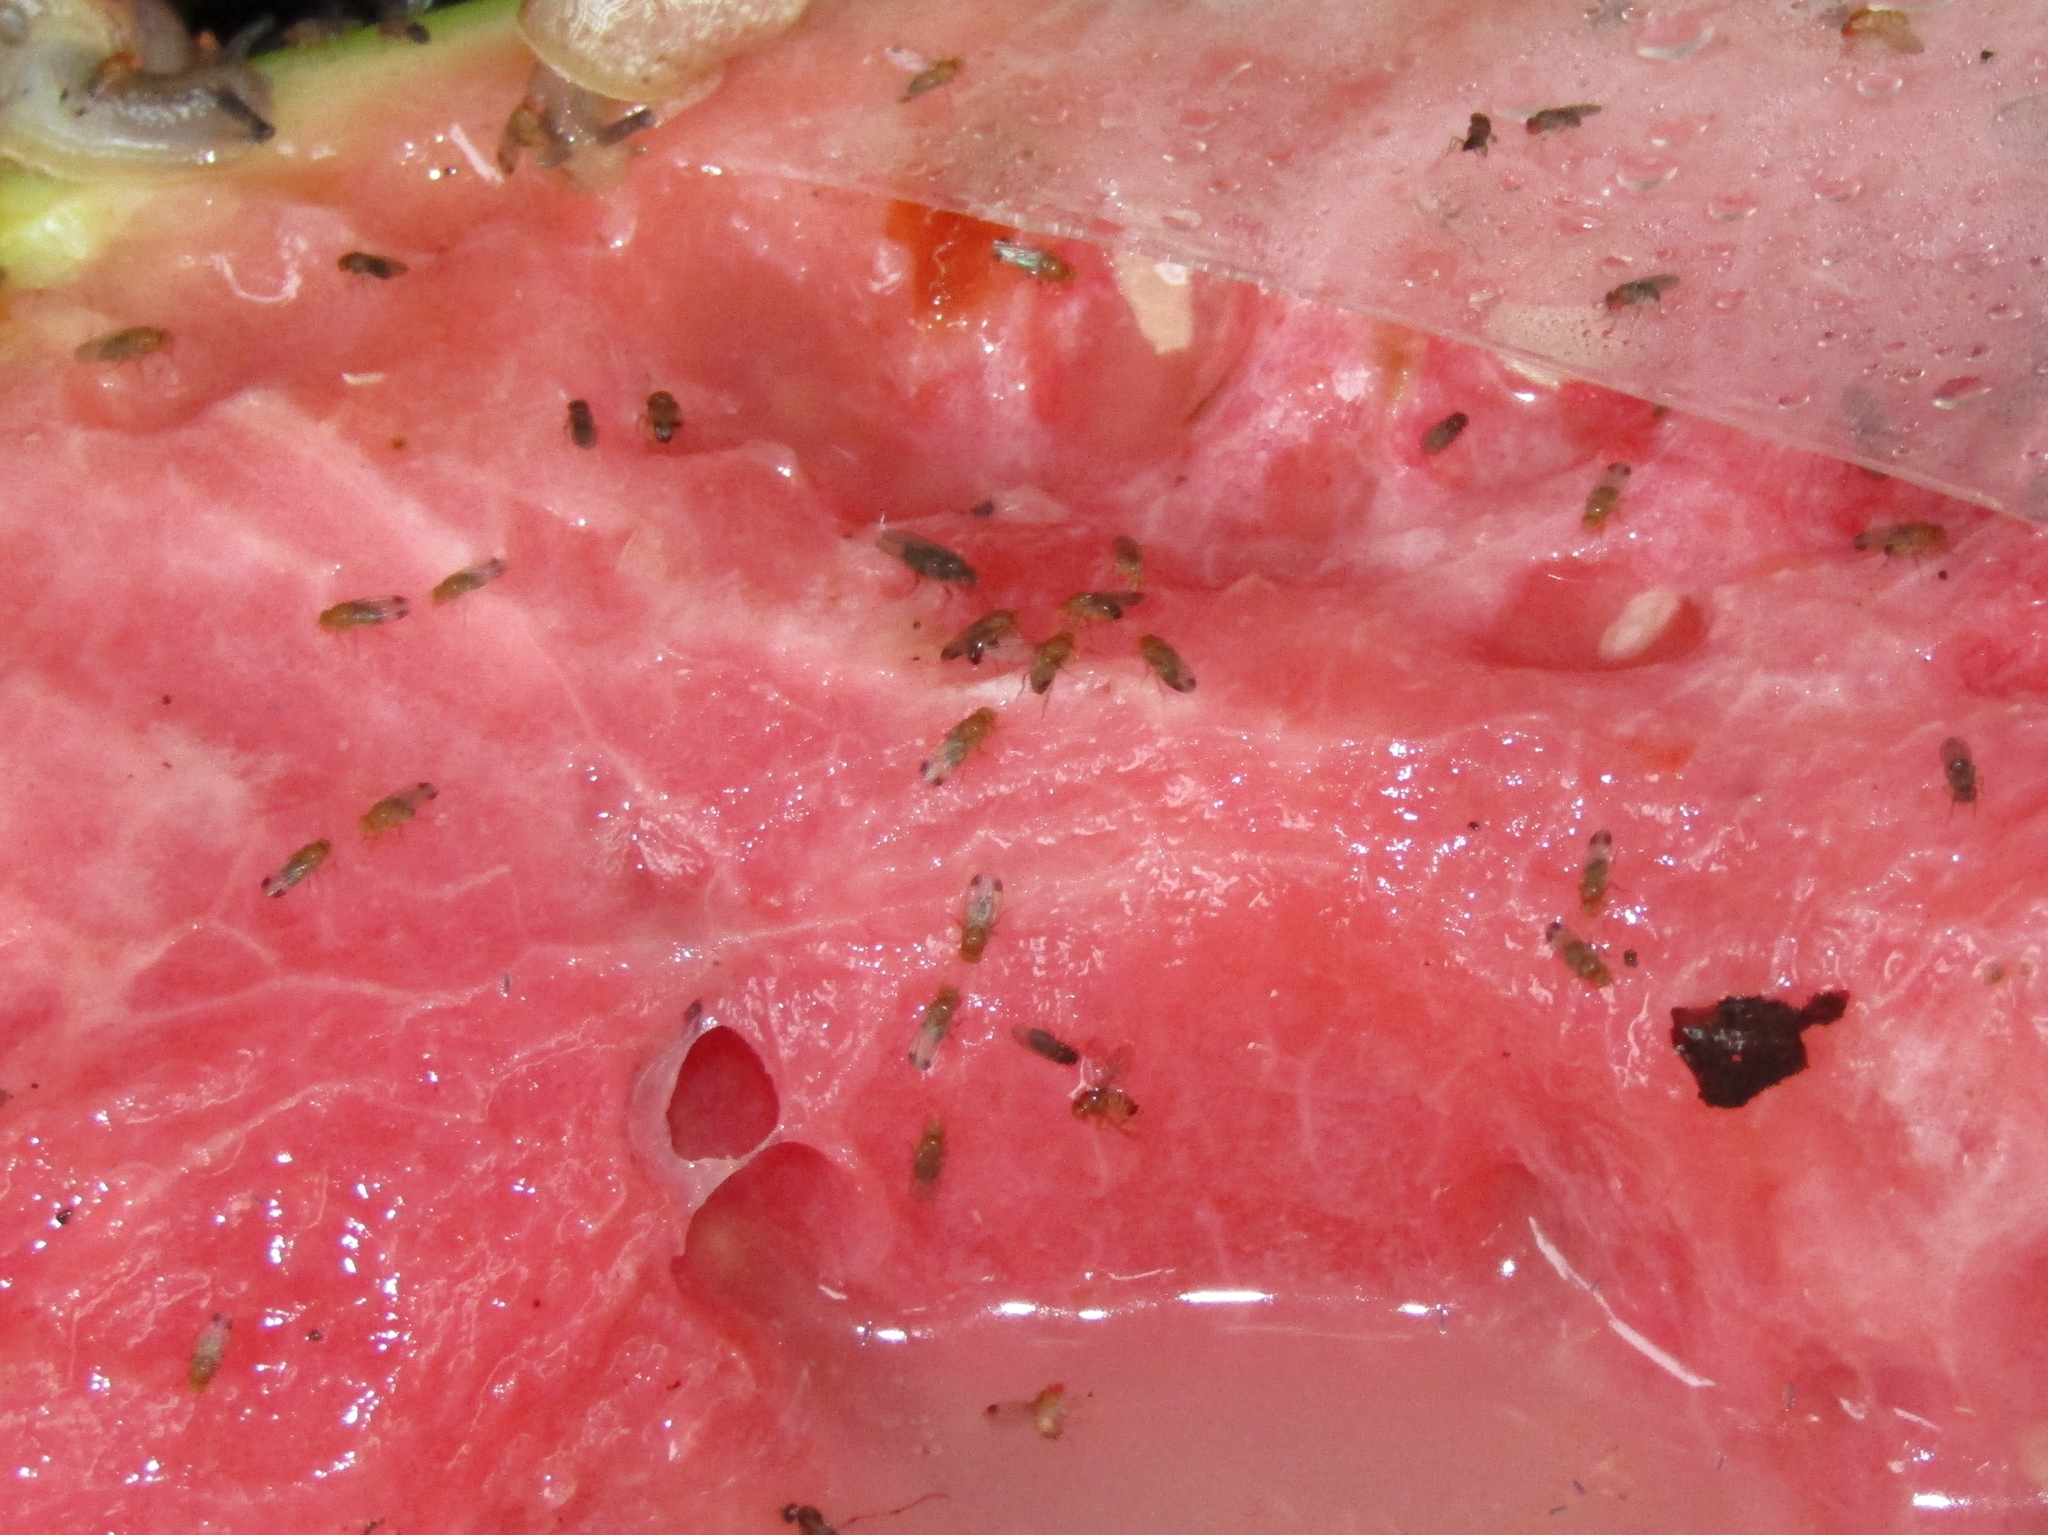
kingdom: Animalia
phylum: Arthropoda
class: Insecta
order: Diptera
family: Drosophilidae
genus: Drosophila
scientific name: Drosophila suzukii
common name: Spotted-wing drosophila
